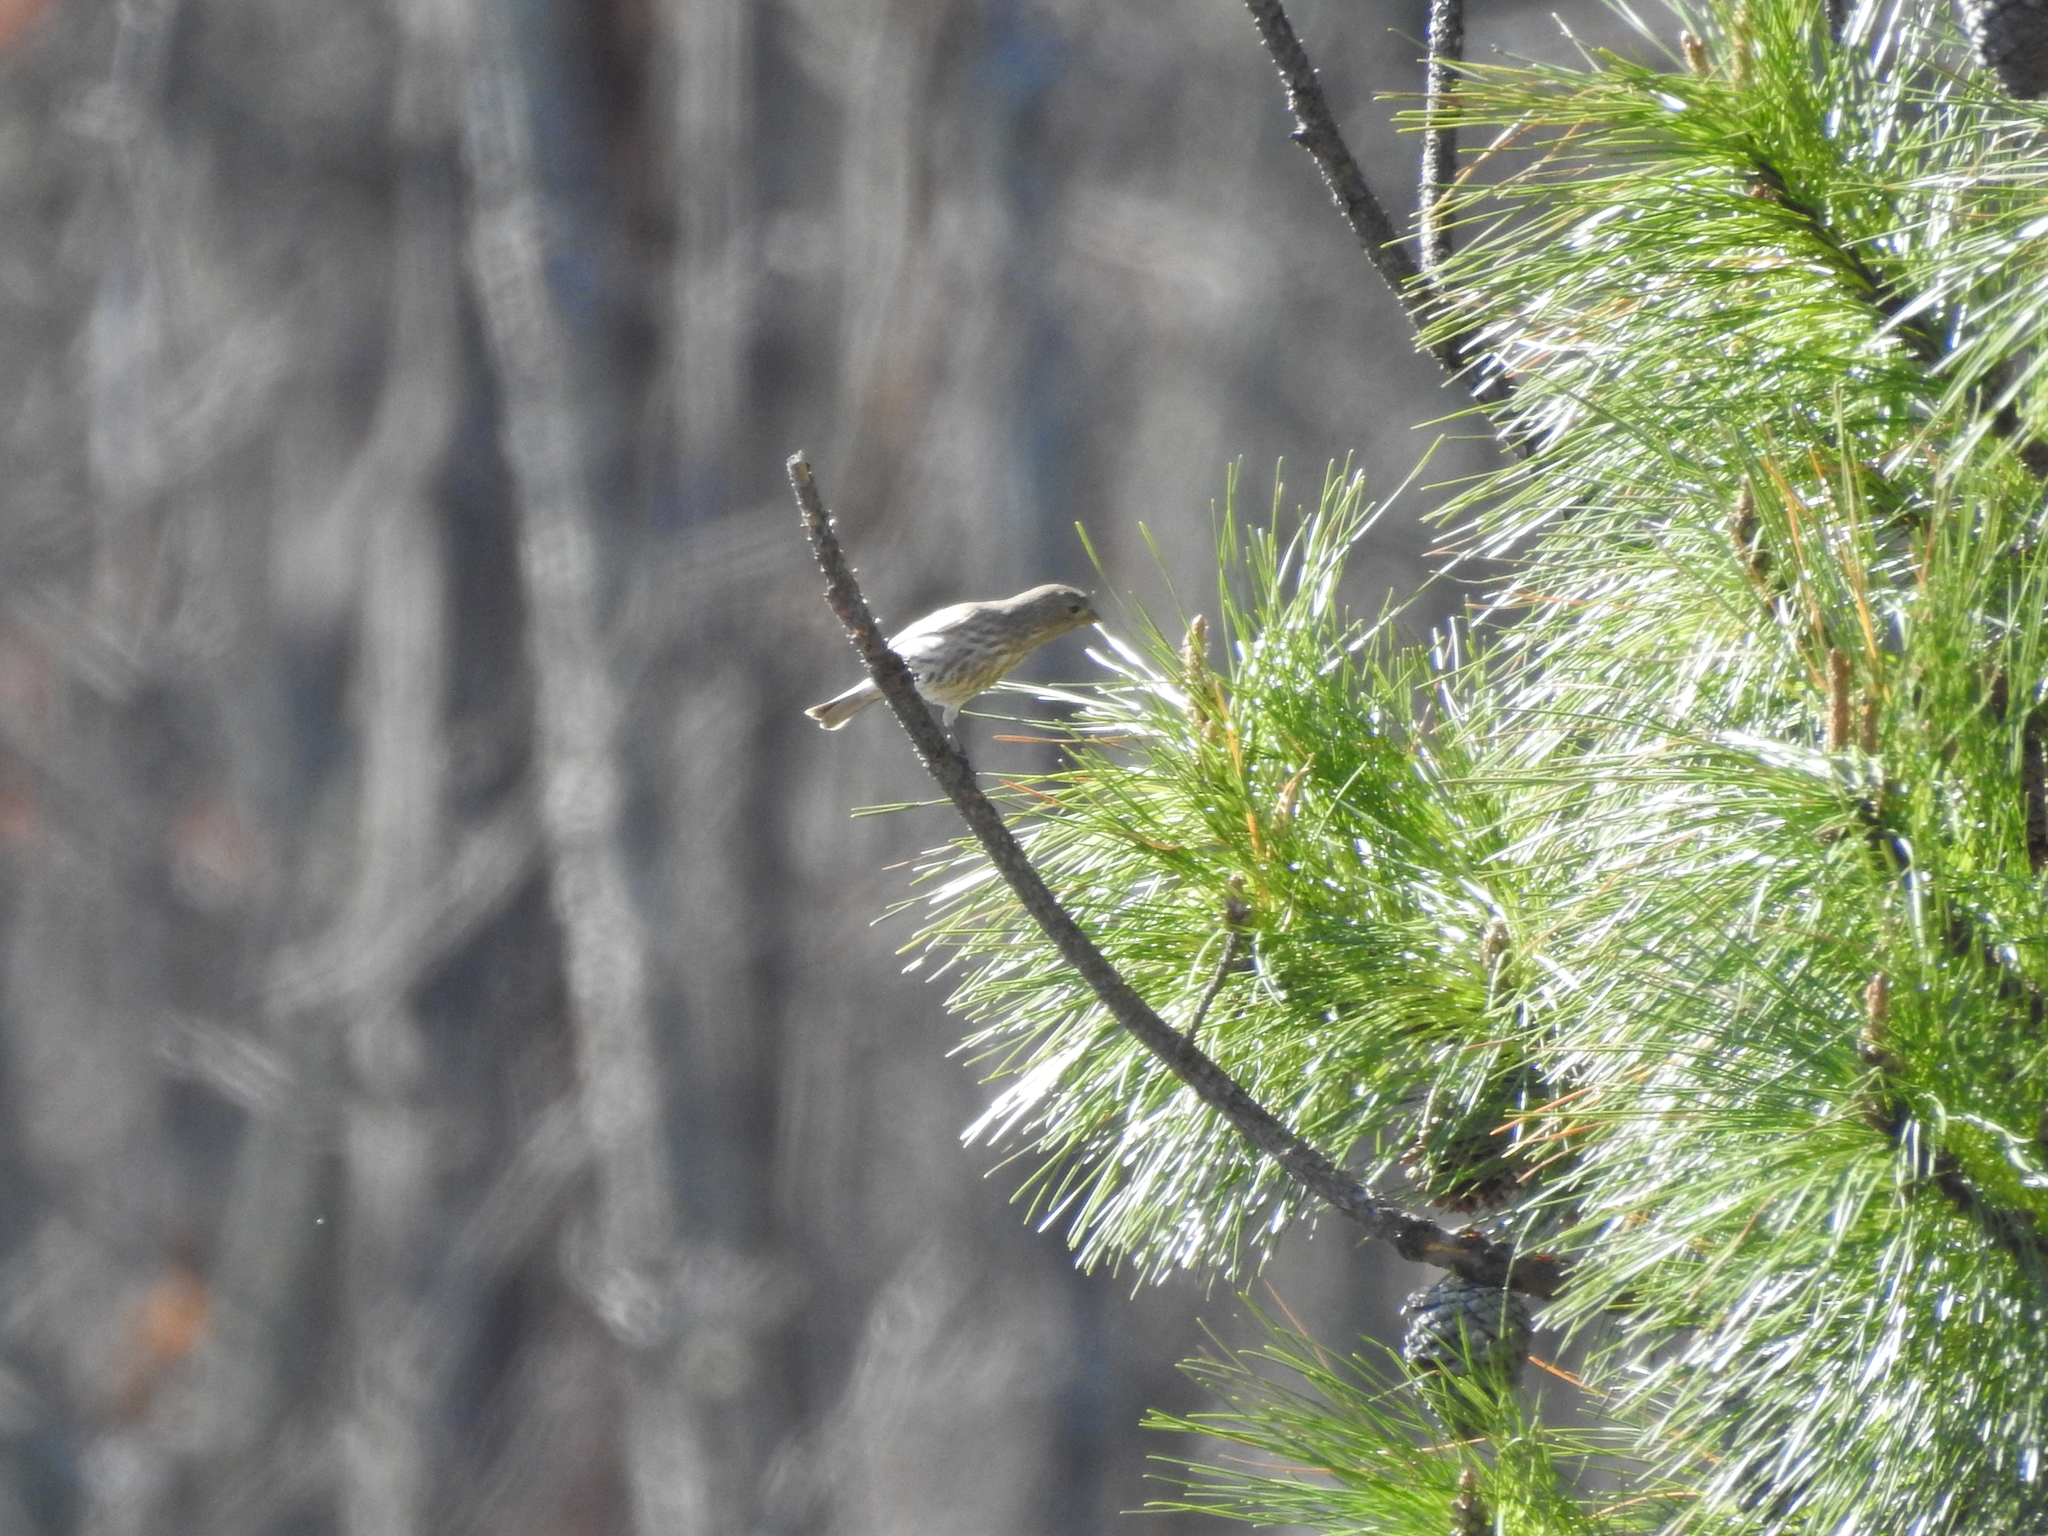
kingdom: Animalia
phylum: Chordata
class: Aves
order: Passeriformes
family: Fringillidae
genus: Haemorhous
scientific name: Haemorhous mexicanus
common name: House finch
